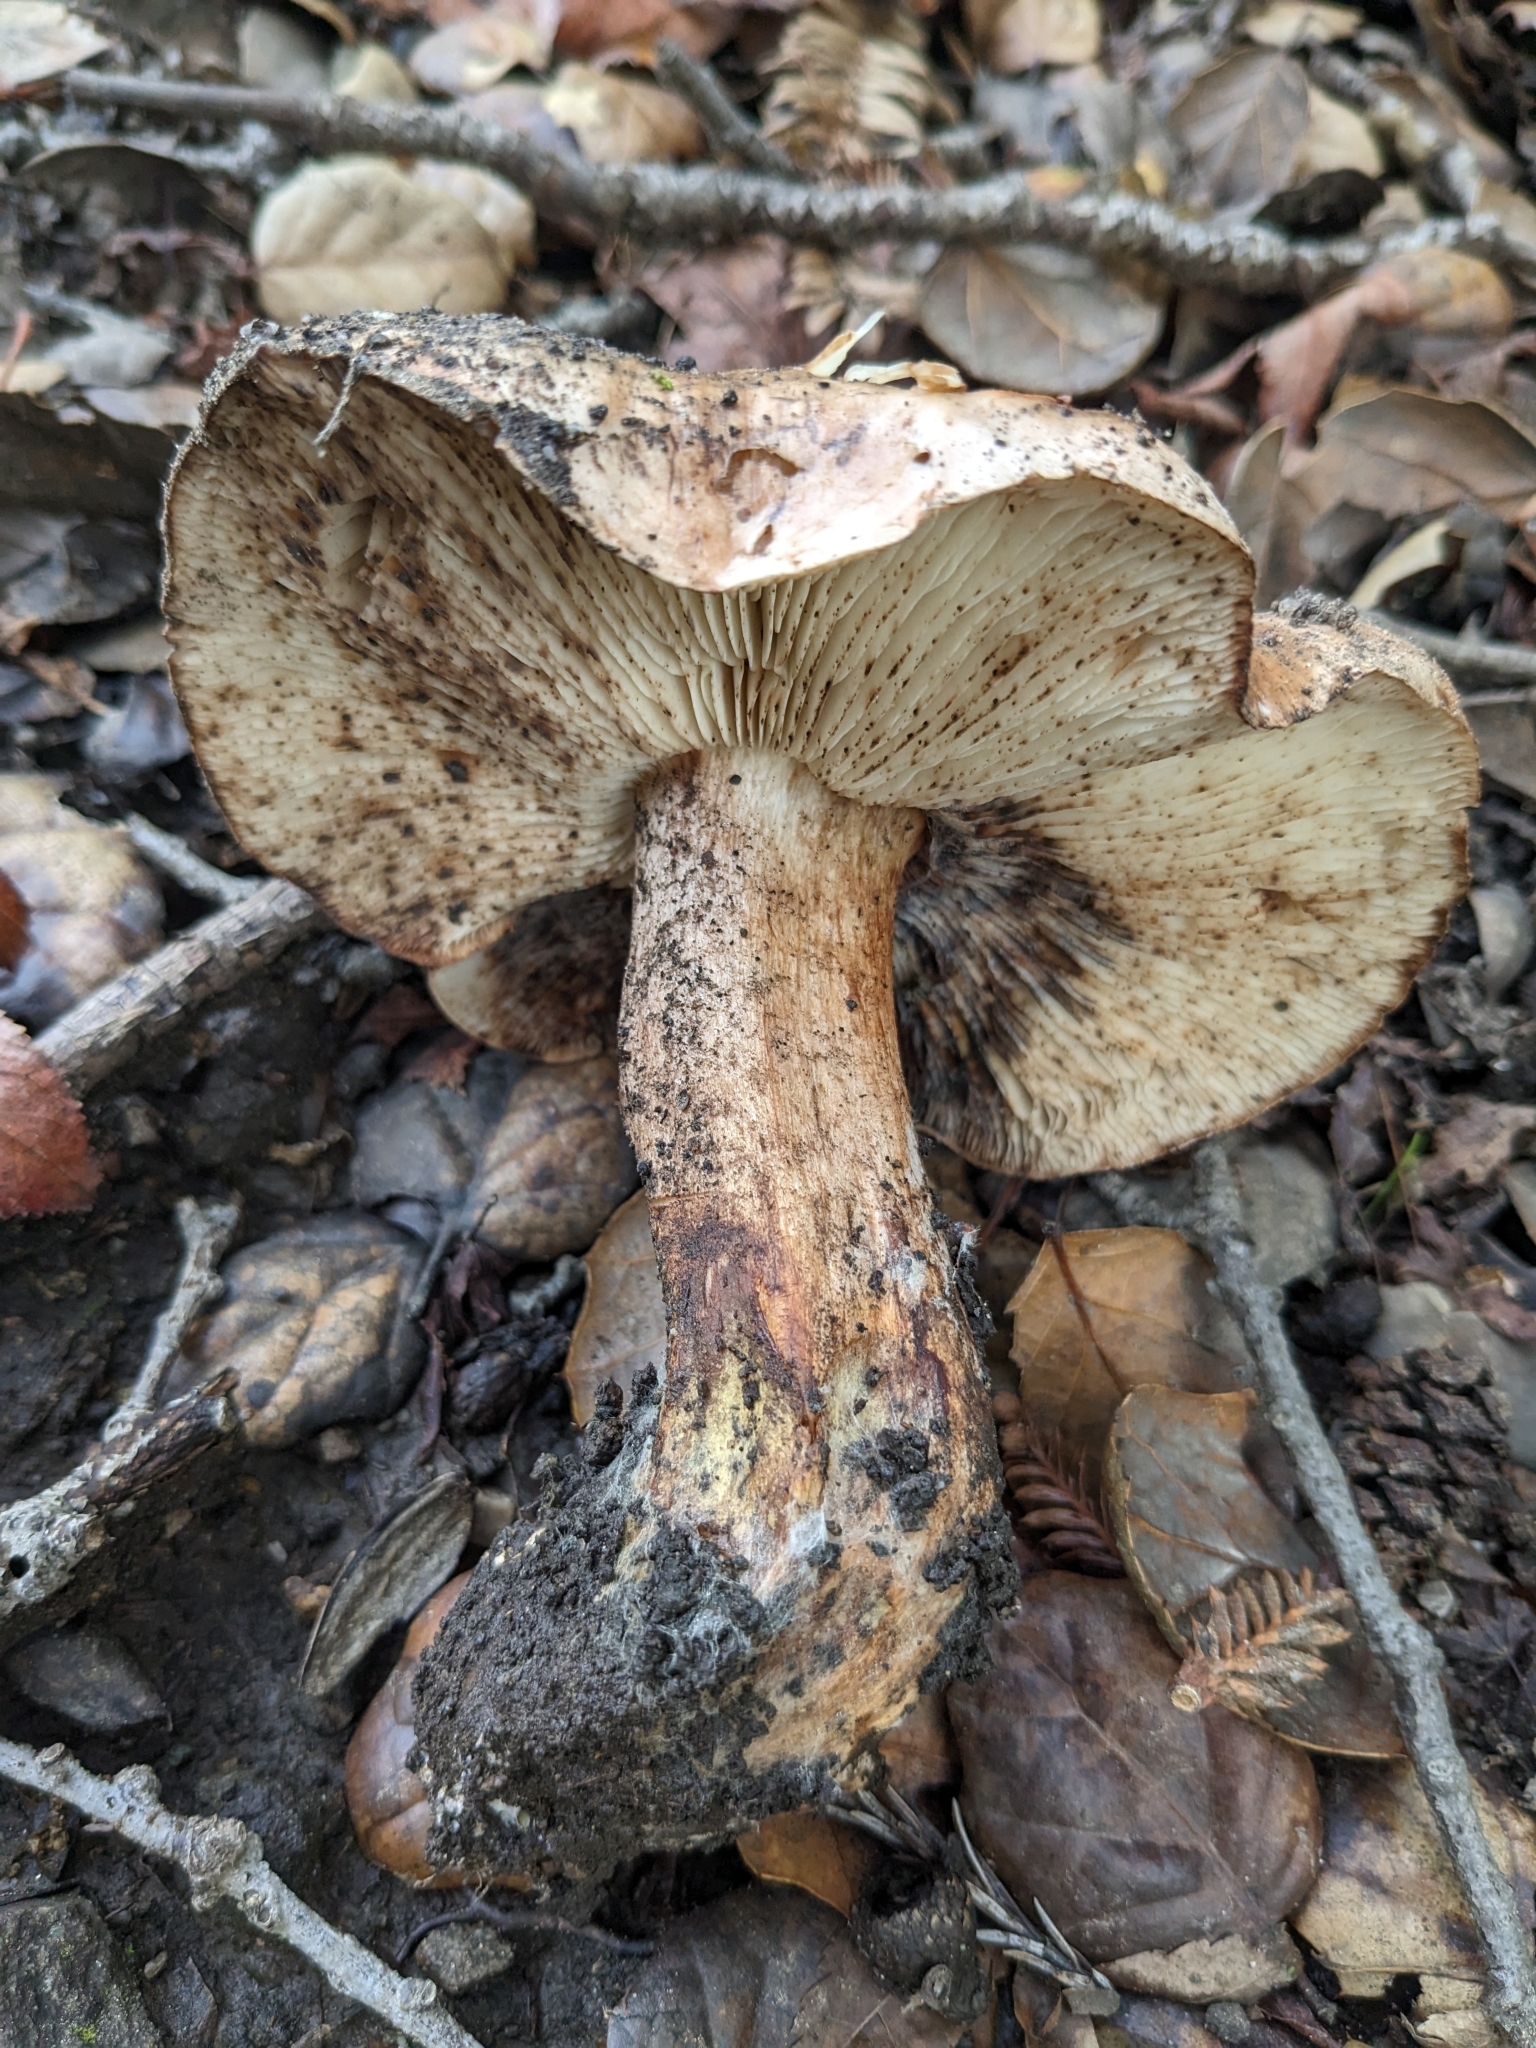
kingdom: Fungi
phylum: Basidiomycota
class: Agaricomycetes
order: Agaricales
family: Tricholomataceae
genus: Melanoleuca
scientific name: Melanoleuca dryophila
